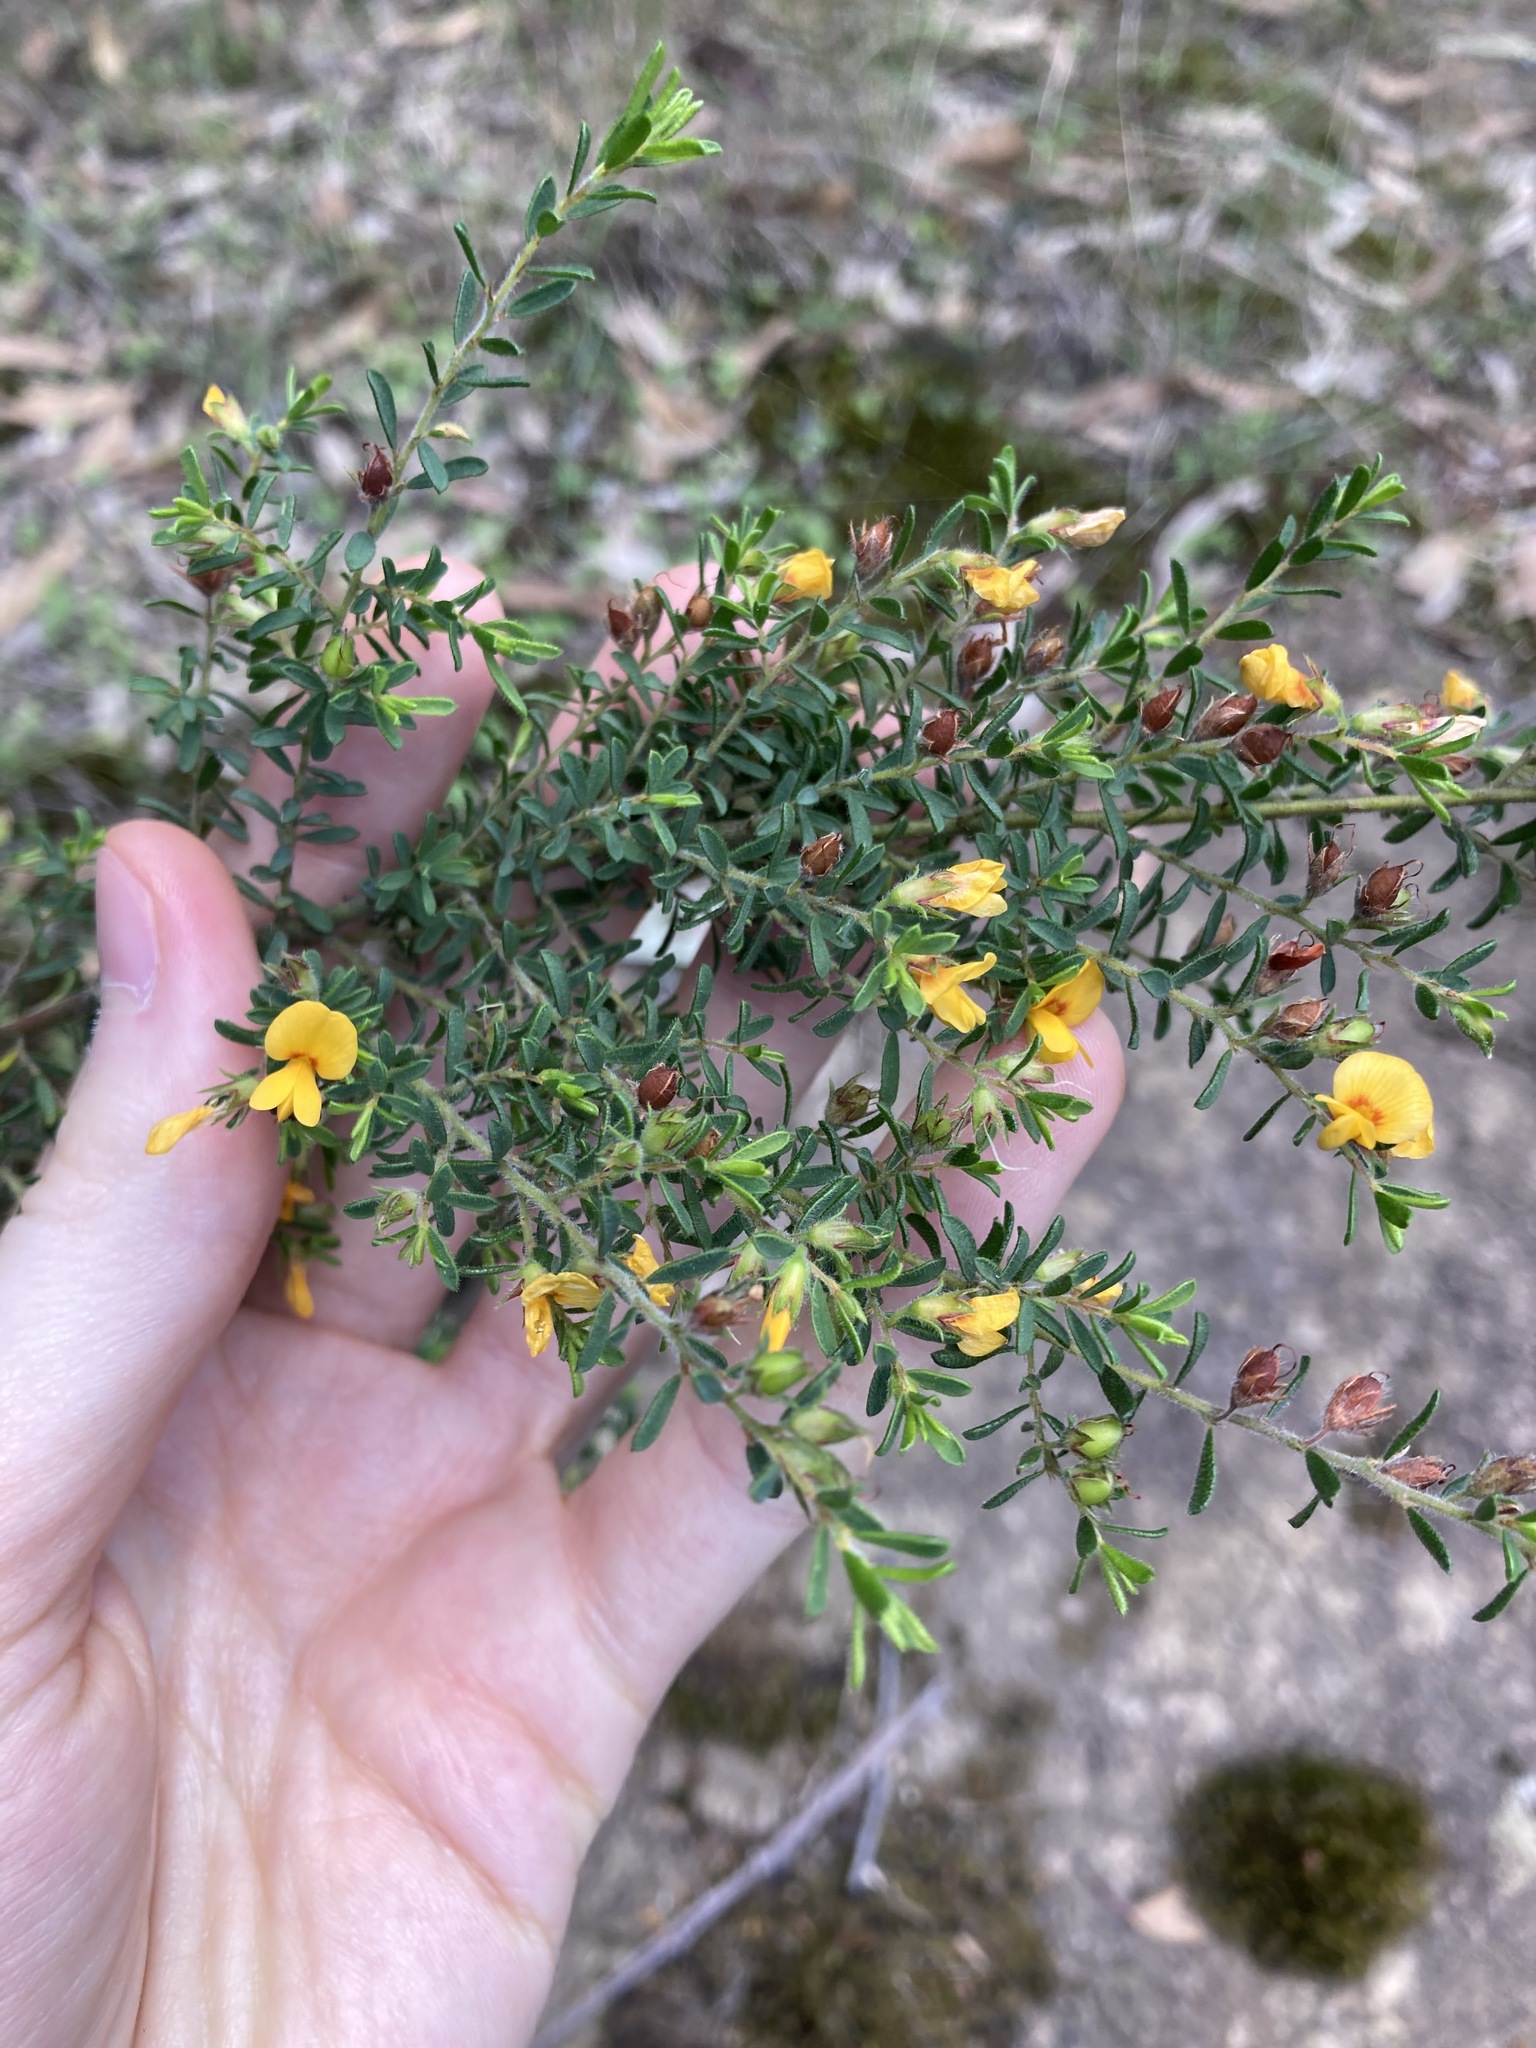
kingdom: Plantae
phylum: Tracheophyta
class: Magnoliopsida
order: Fabales
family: Fabaceae
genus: Pultenaea
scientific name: Pultenaea villosa
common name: Bronze bush-pea
